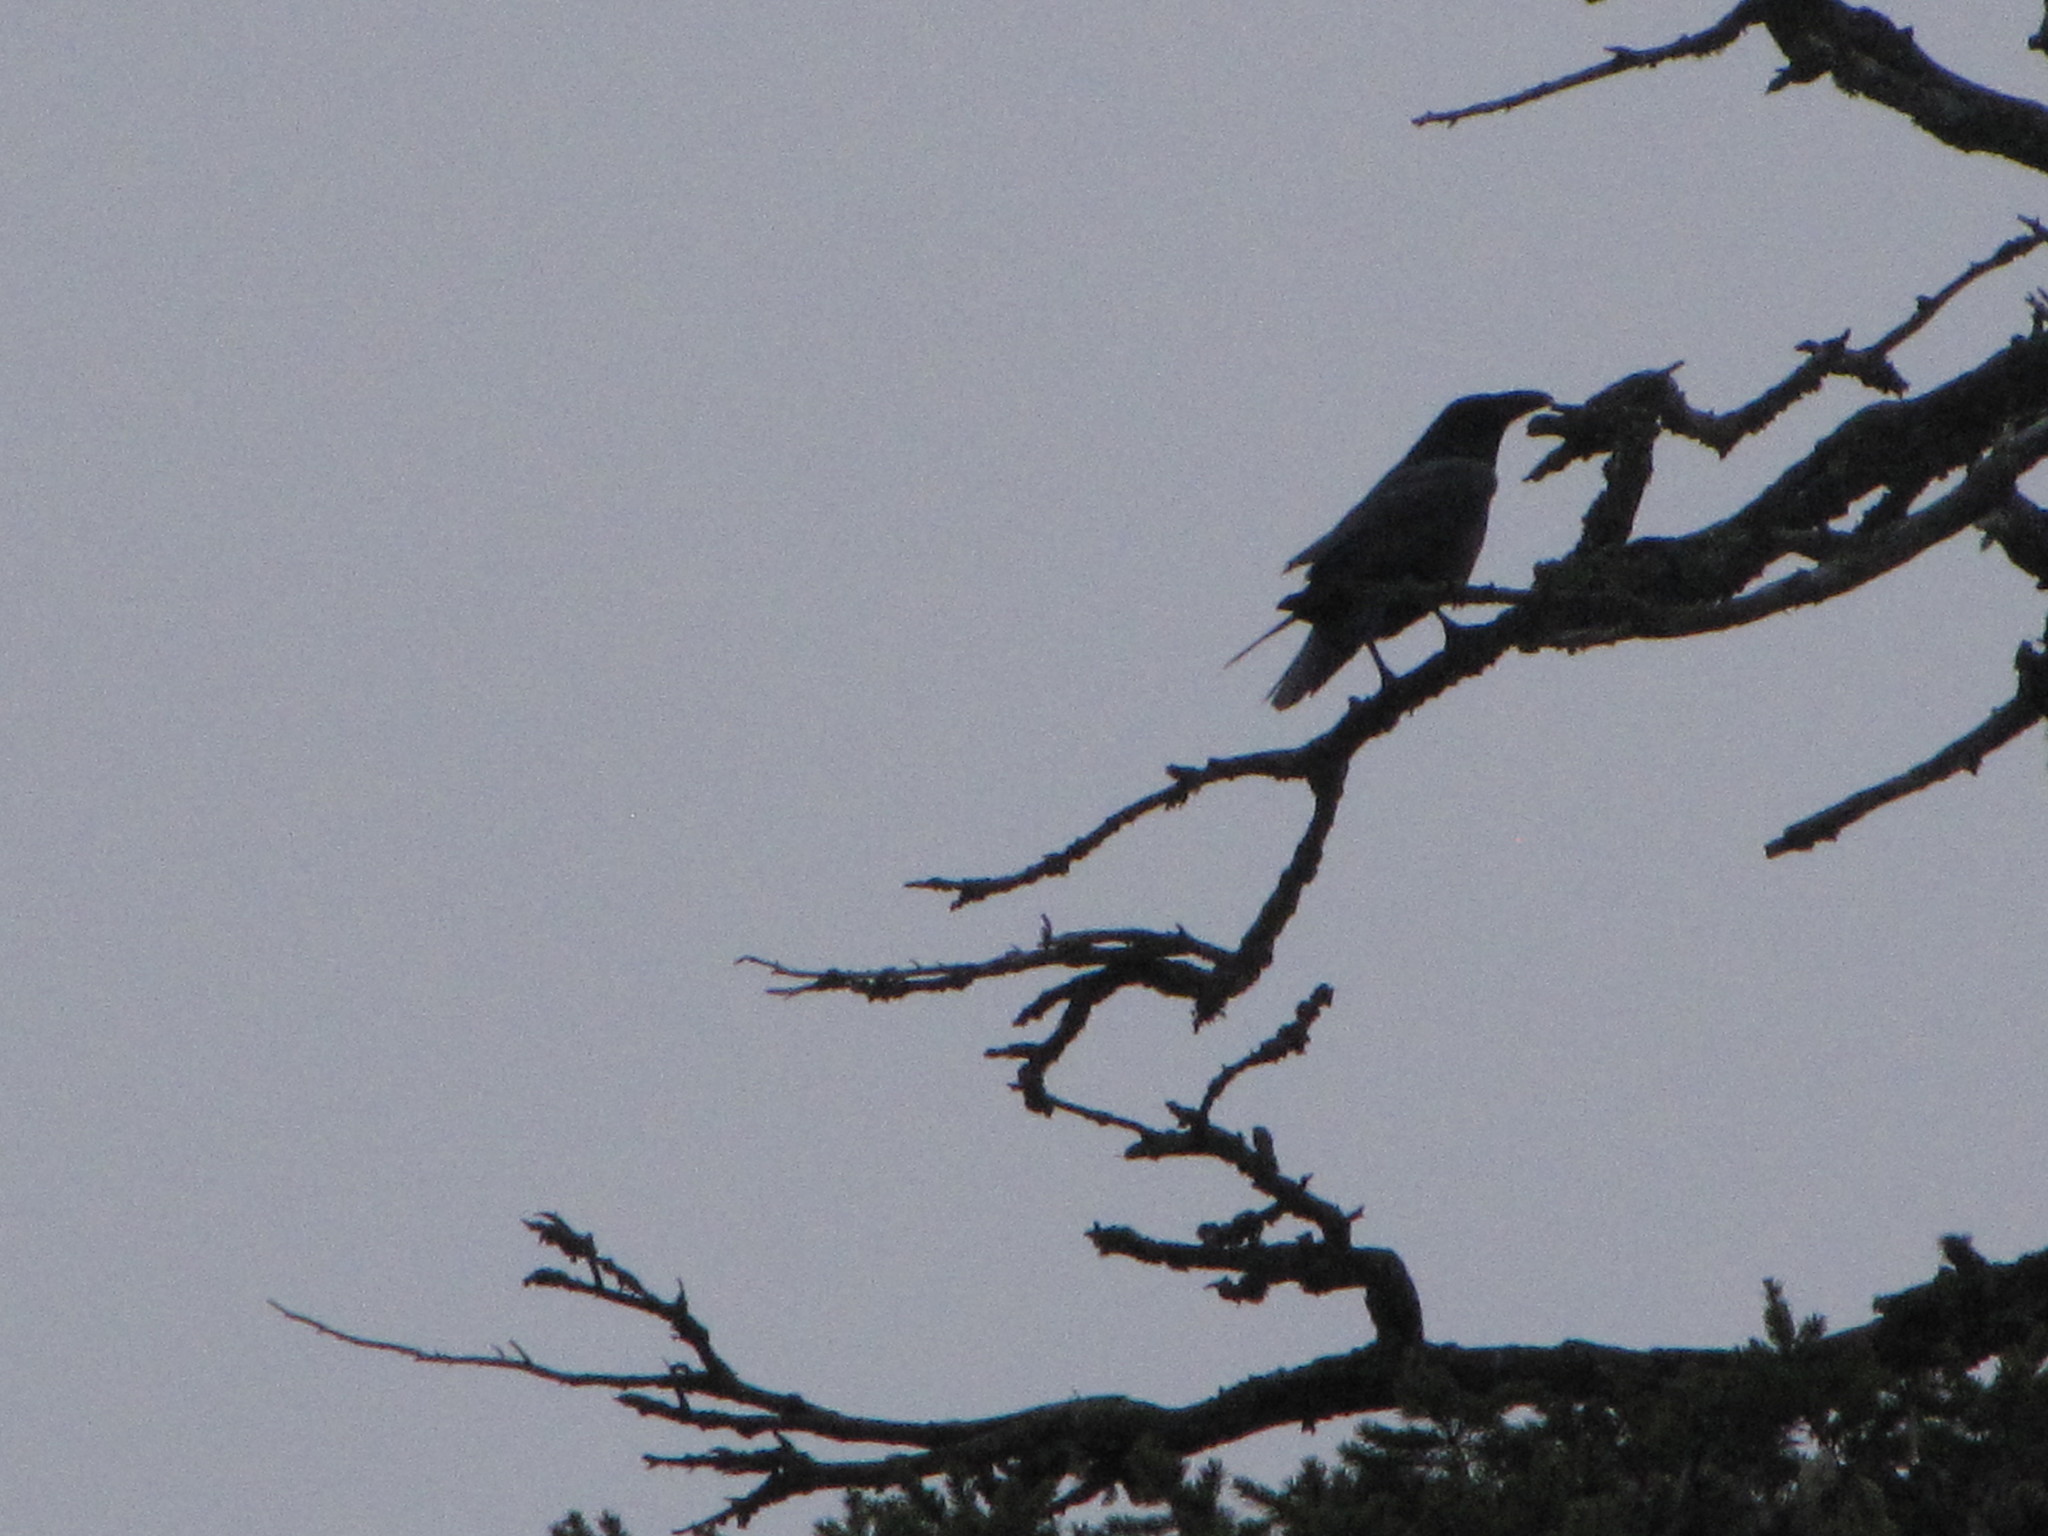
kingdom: Animalia
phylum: Chordata
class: Aves
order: Passeriformes
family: Corvidae
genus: Corvus
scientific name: Corvus corax
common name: Common raven
